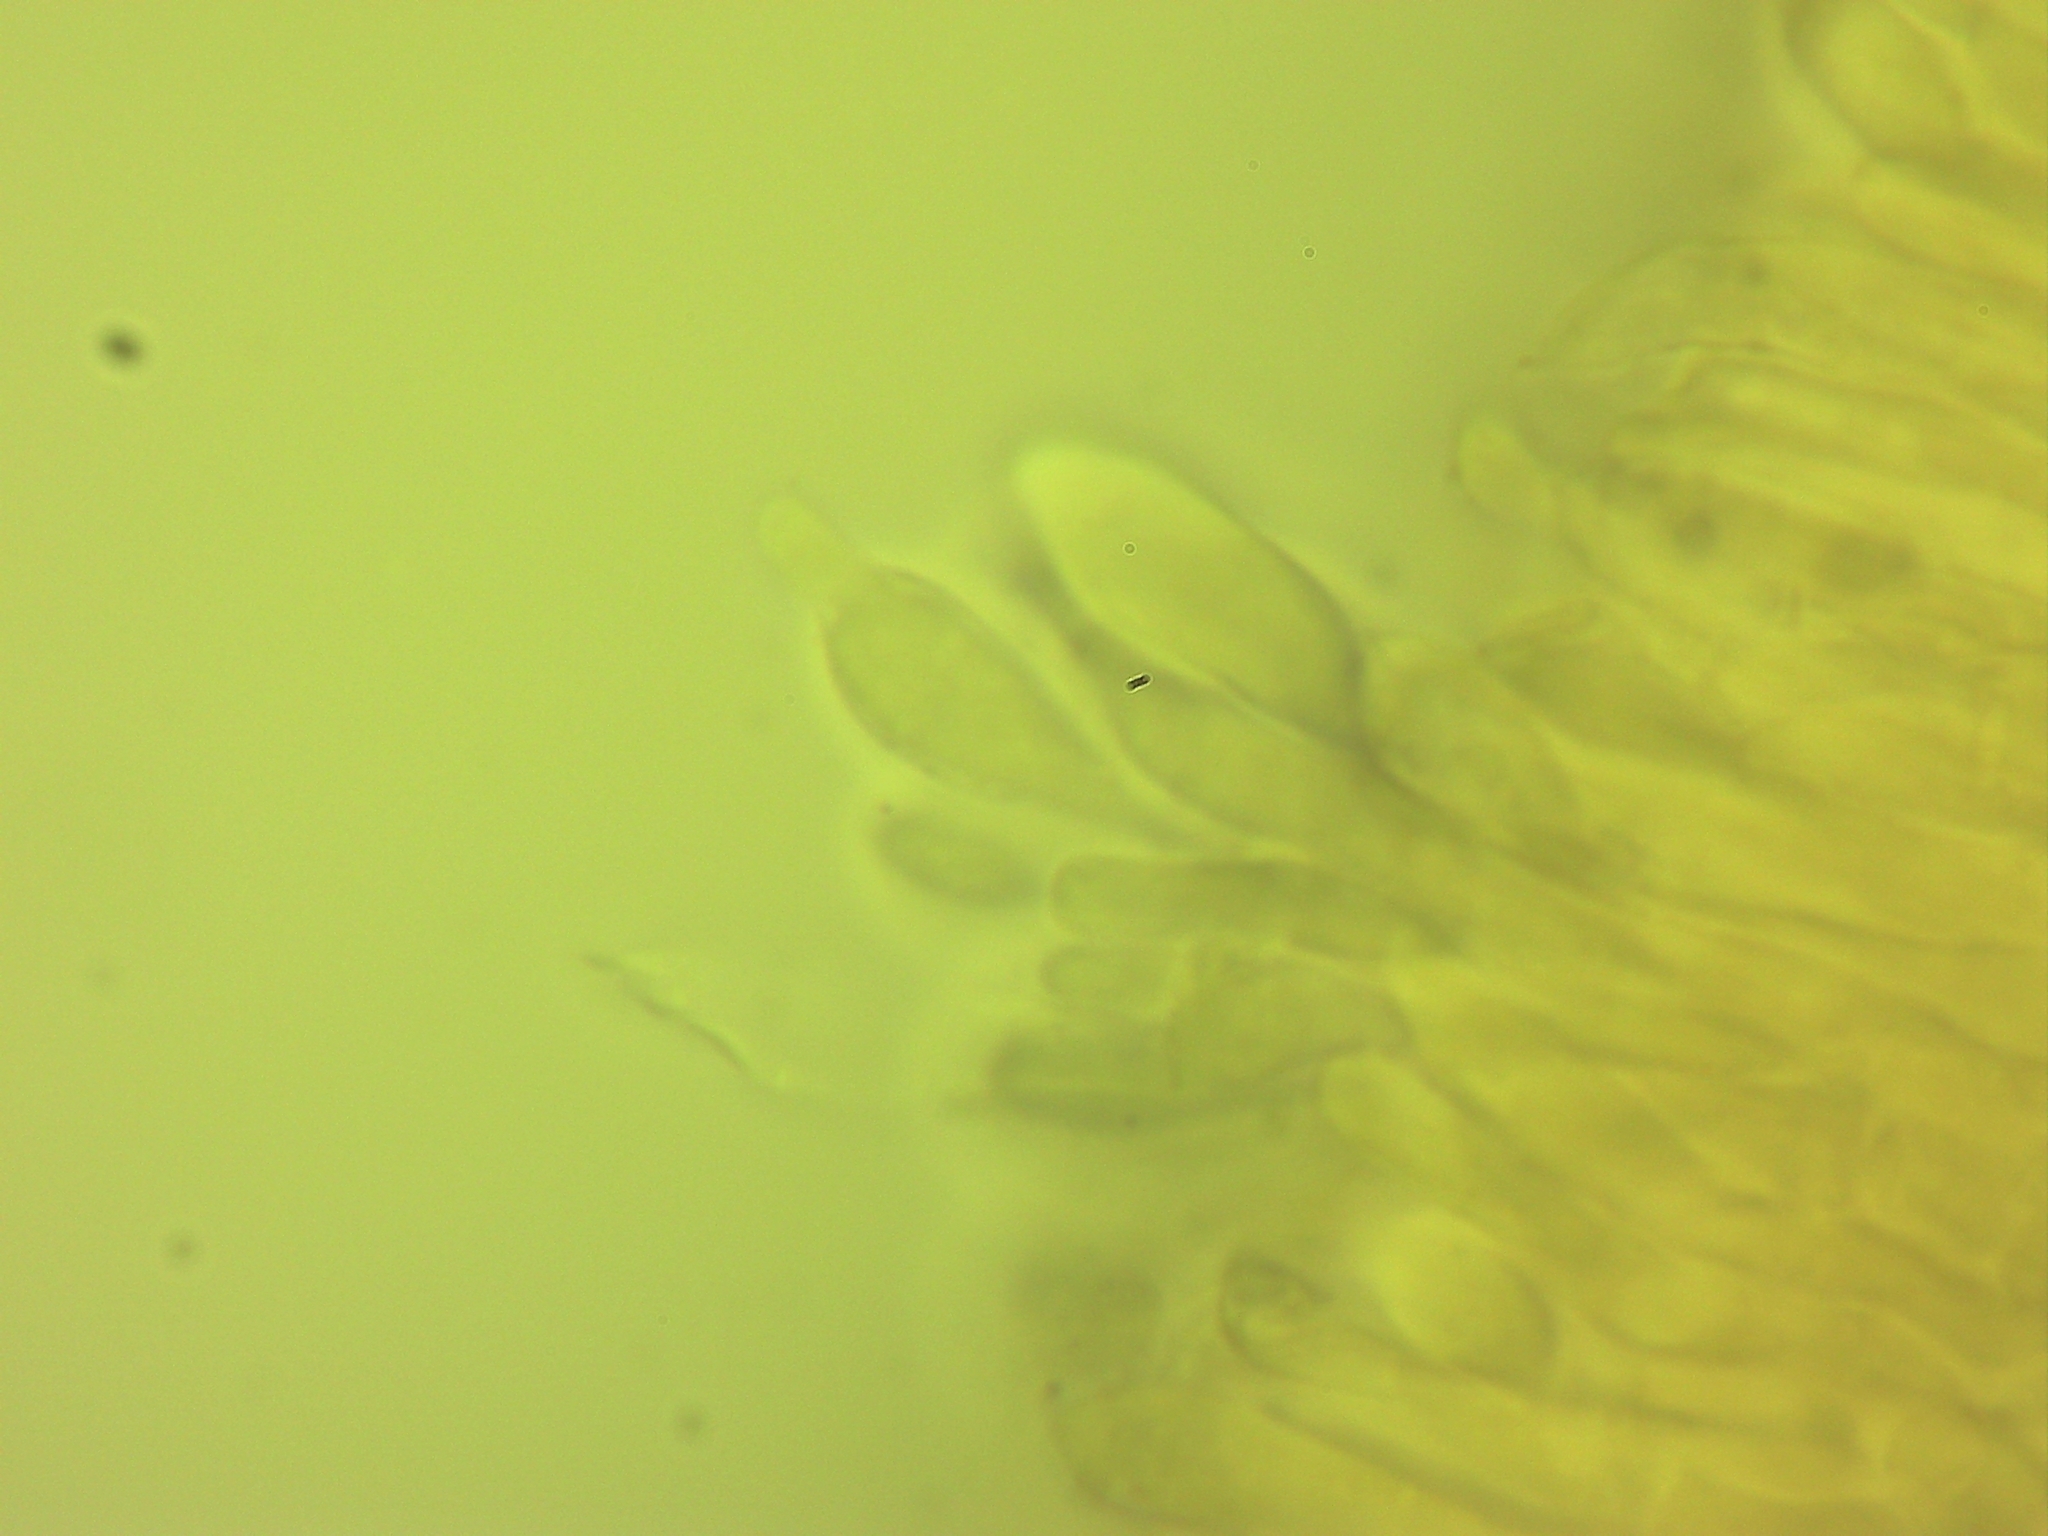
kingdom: Fungi
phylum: Basidiomycota
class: Agaricomycetes
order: Agaricales
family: Tricholomataceae
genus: Tricholoma
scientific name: Tricholoma fracticum
